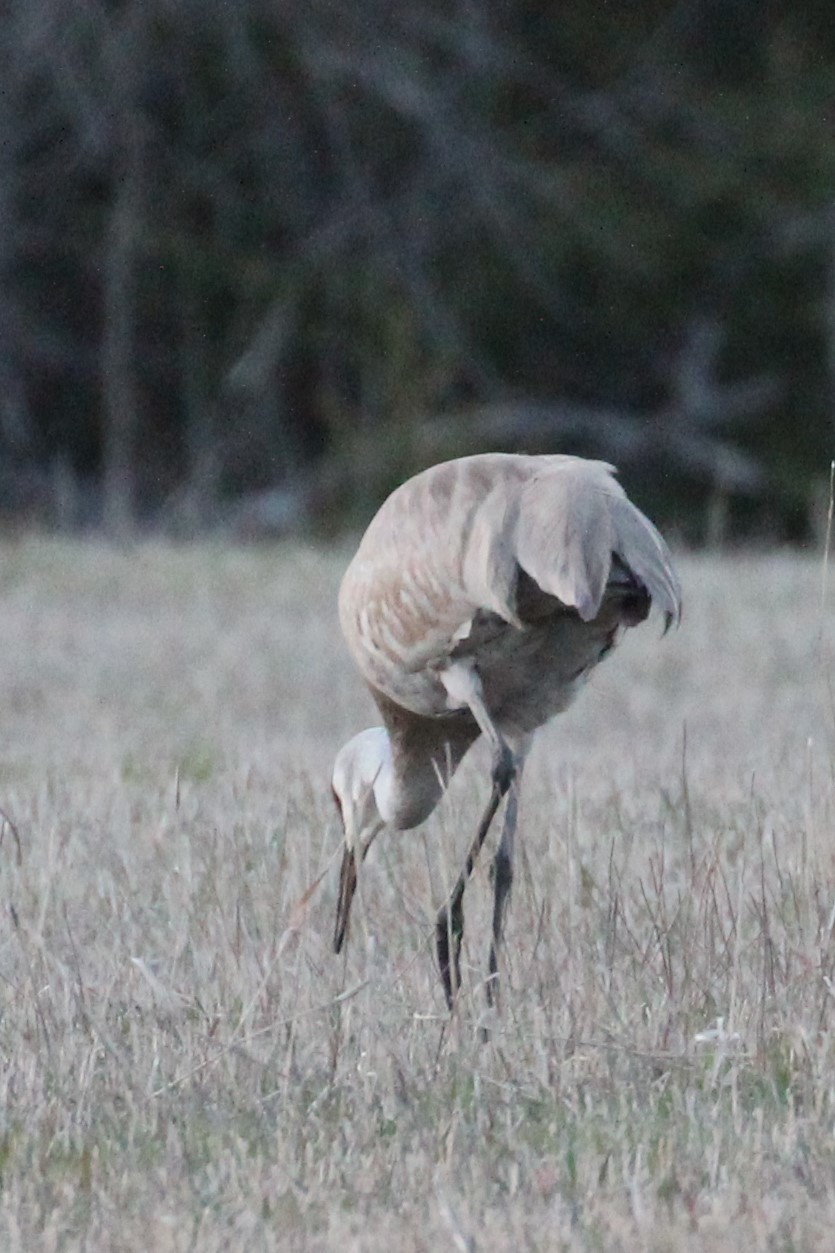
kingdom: Animalia
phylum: Chordata
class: Aves
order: Gruiformes
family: Gruidae
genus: Grus
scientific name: Grus canadensis
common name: Sandhill crane
